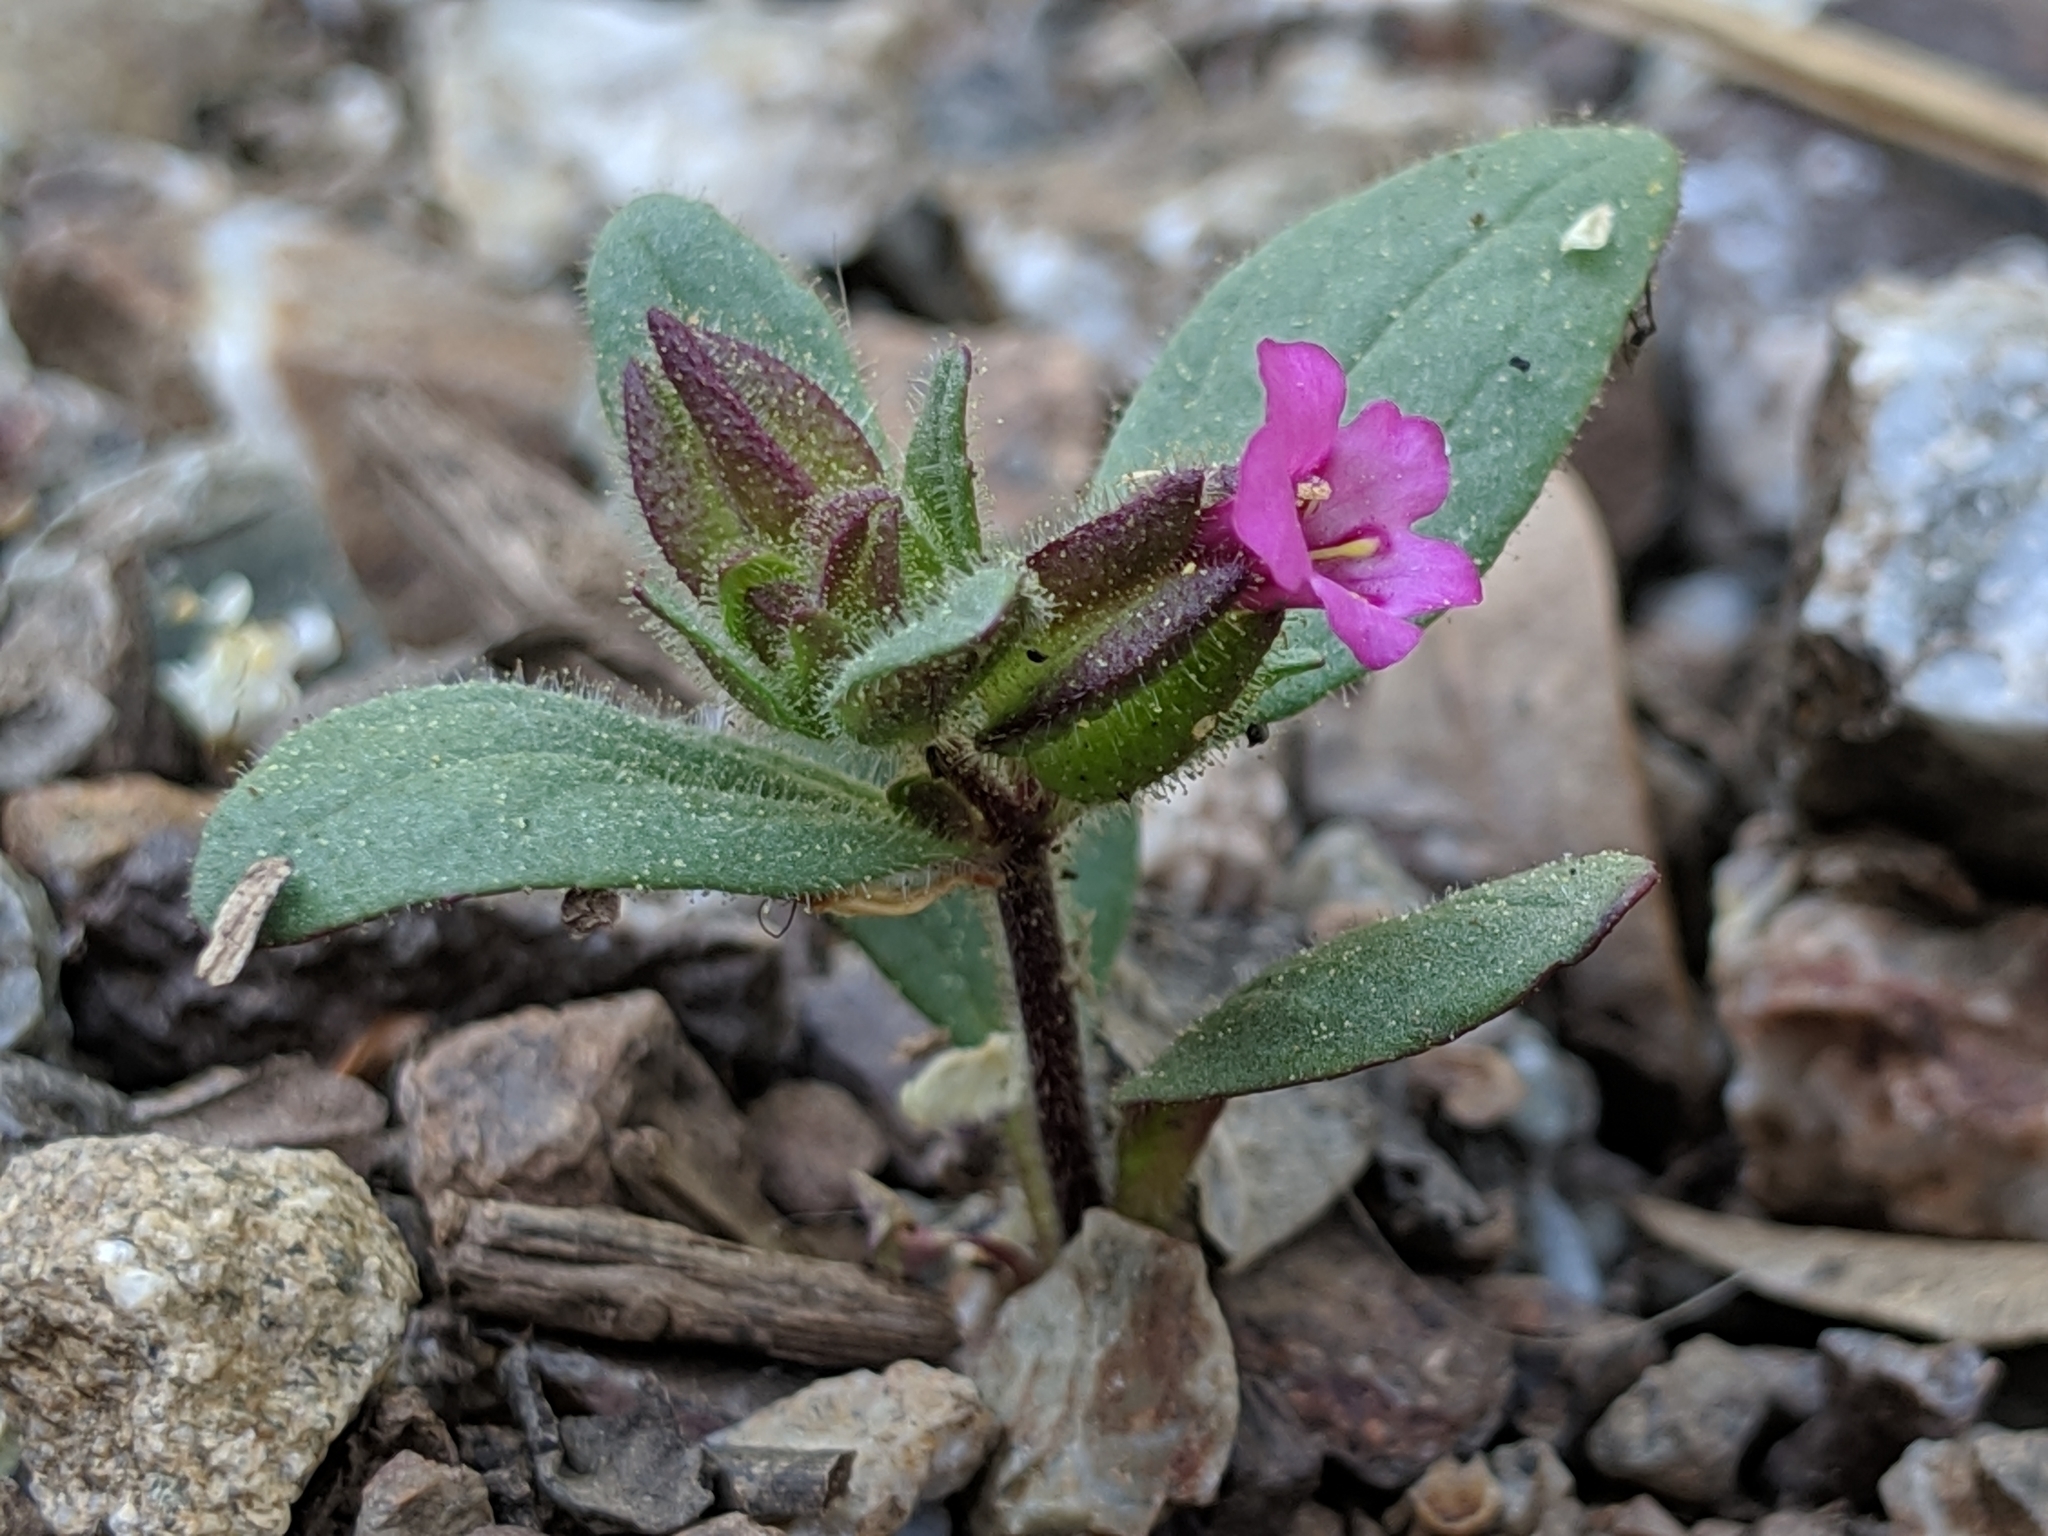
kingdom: Plantae
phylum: Tracheophyta
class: Magnoliopsida
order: Lamiales
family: Phrymaceae
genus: Diplacus
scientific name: Diplacus rattanii
